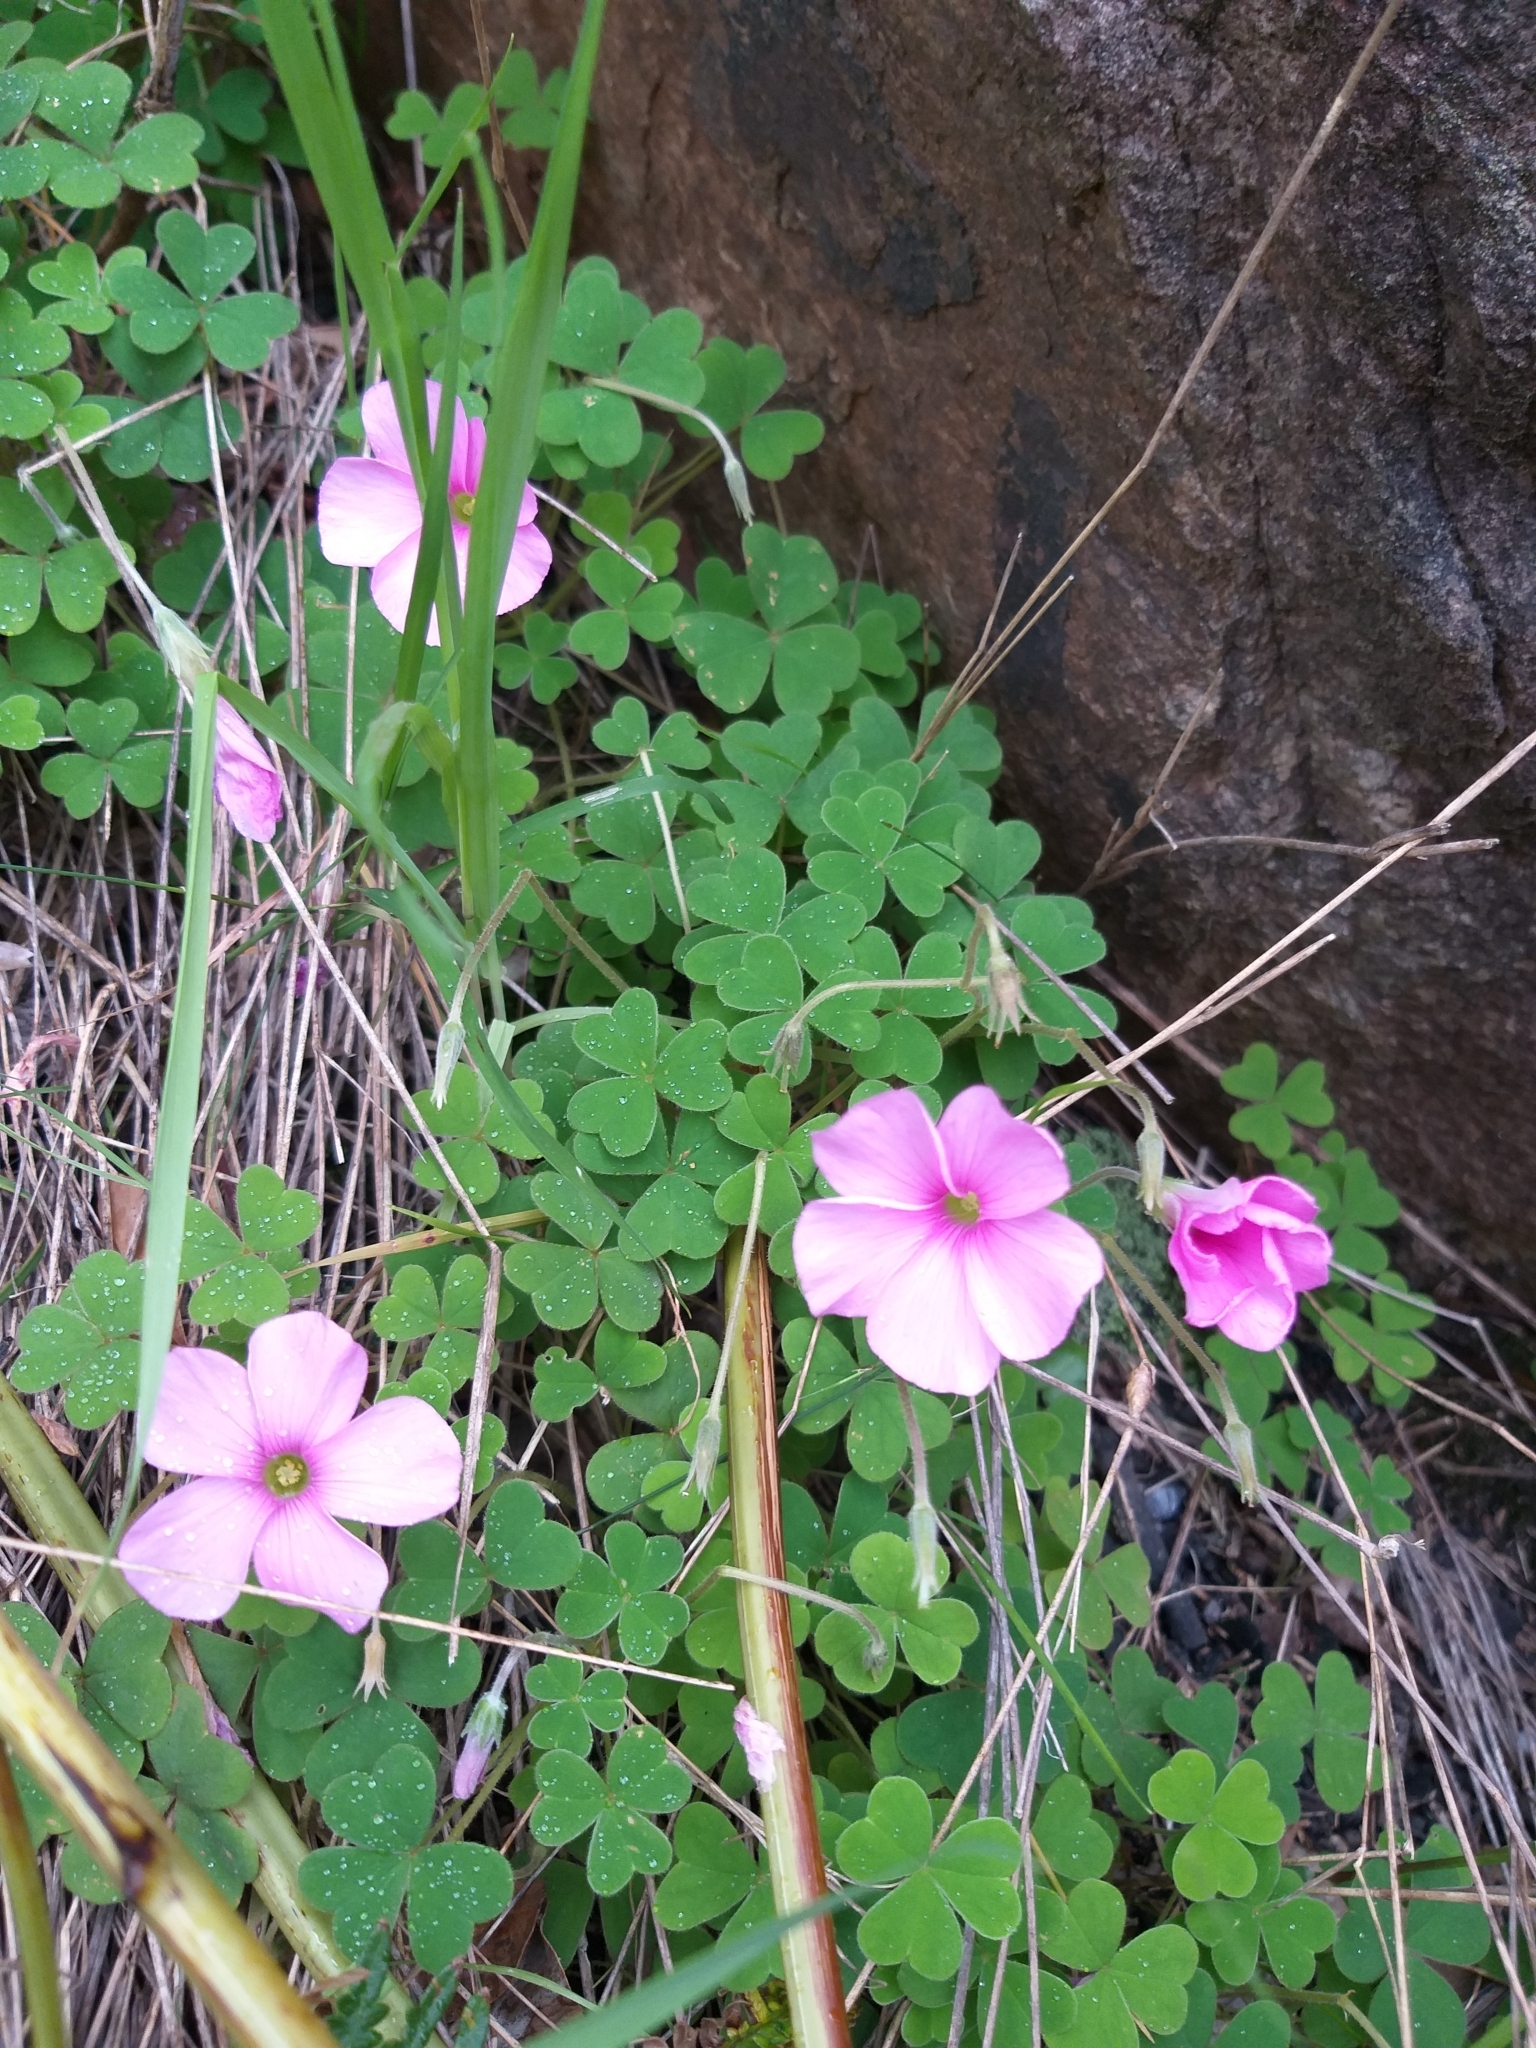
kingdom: Plantae
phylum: Tracheophyta
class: Magnoliopsida
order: Oxalidales
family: Oxalidaceae
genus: Oxalis
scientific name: Oxalis lanata
